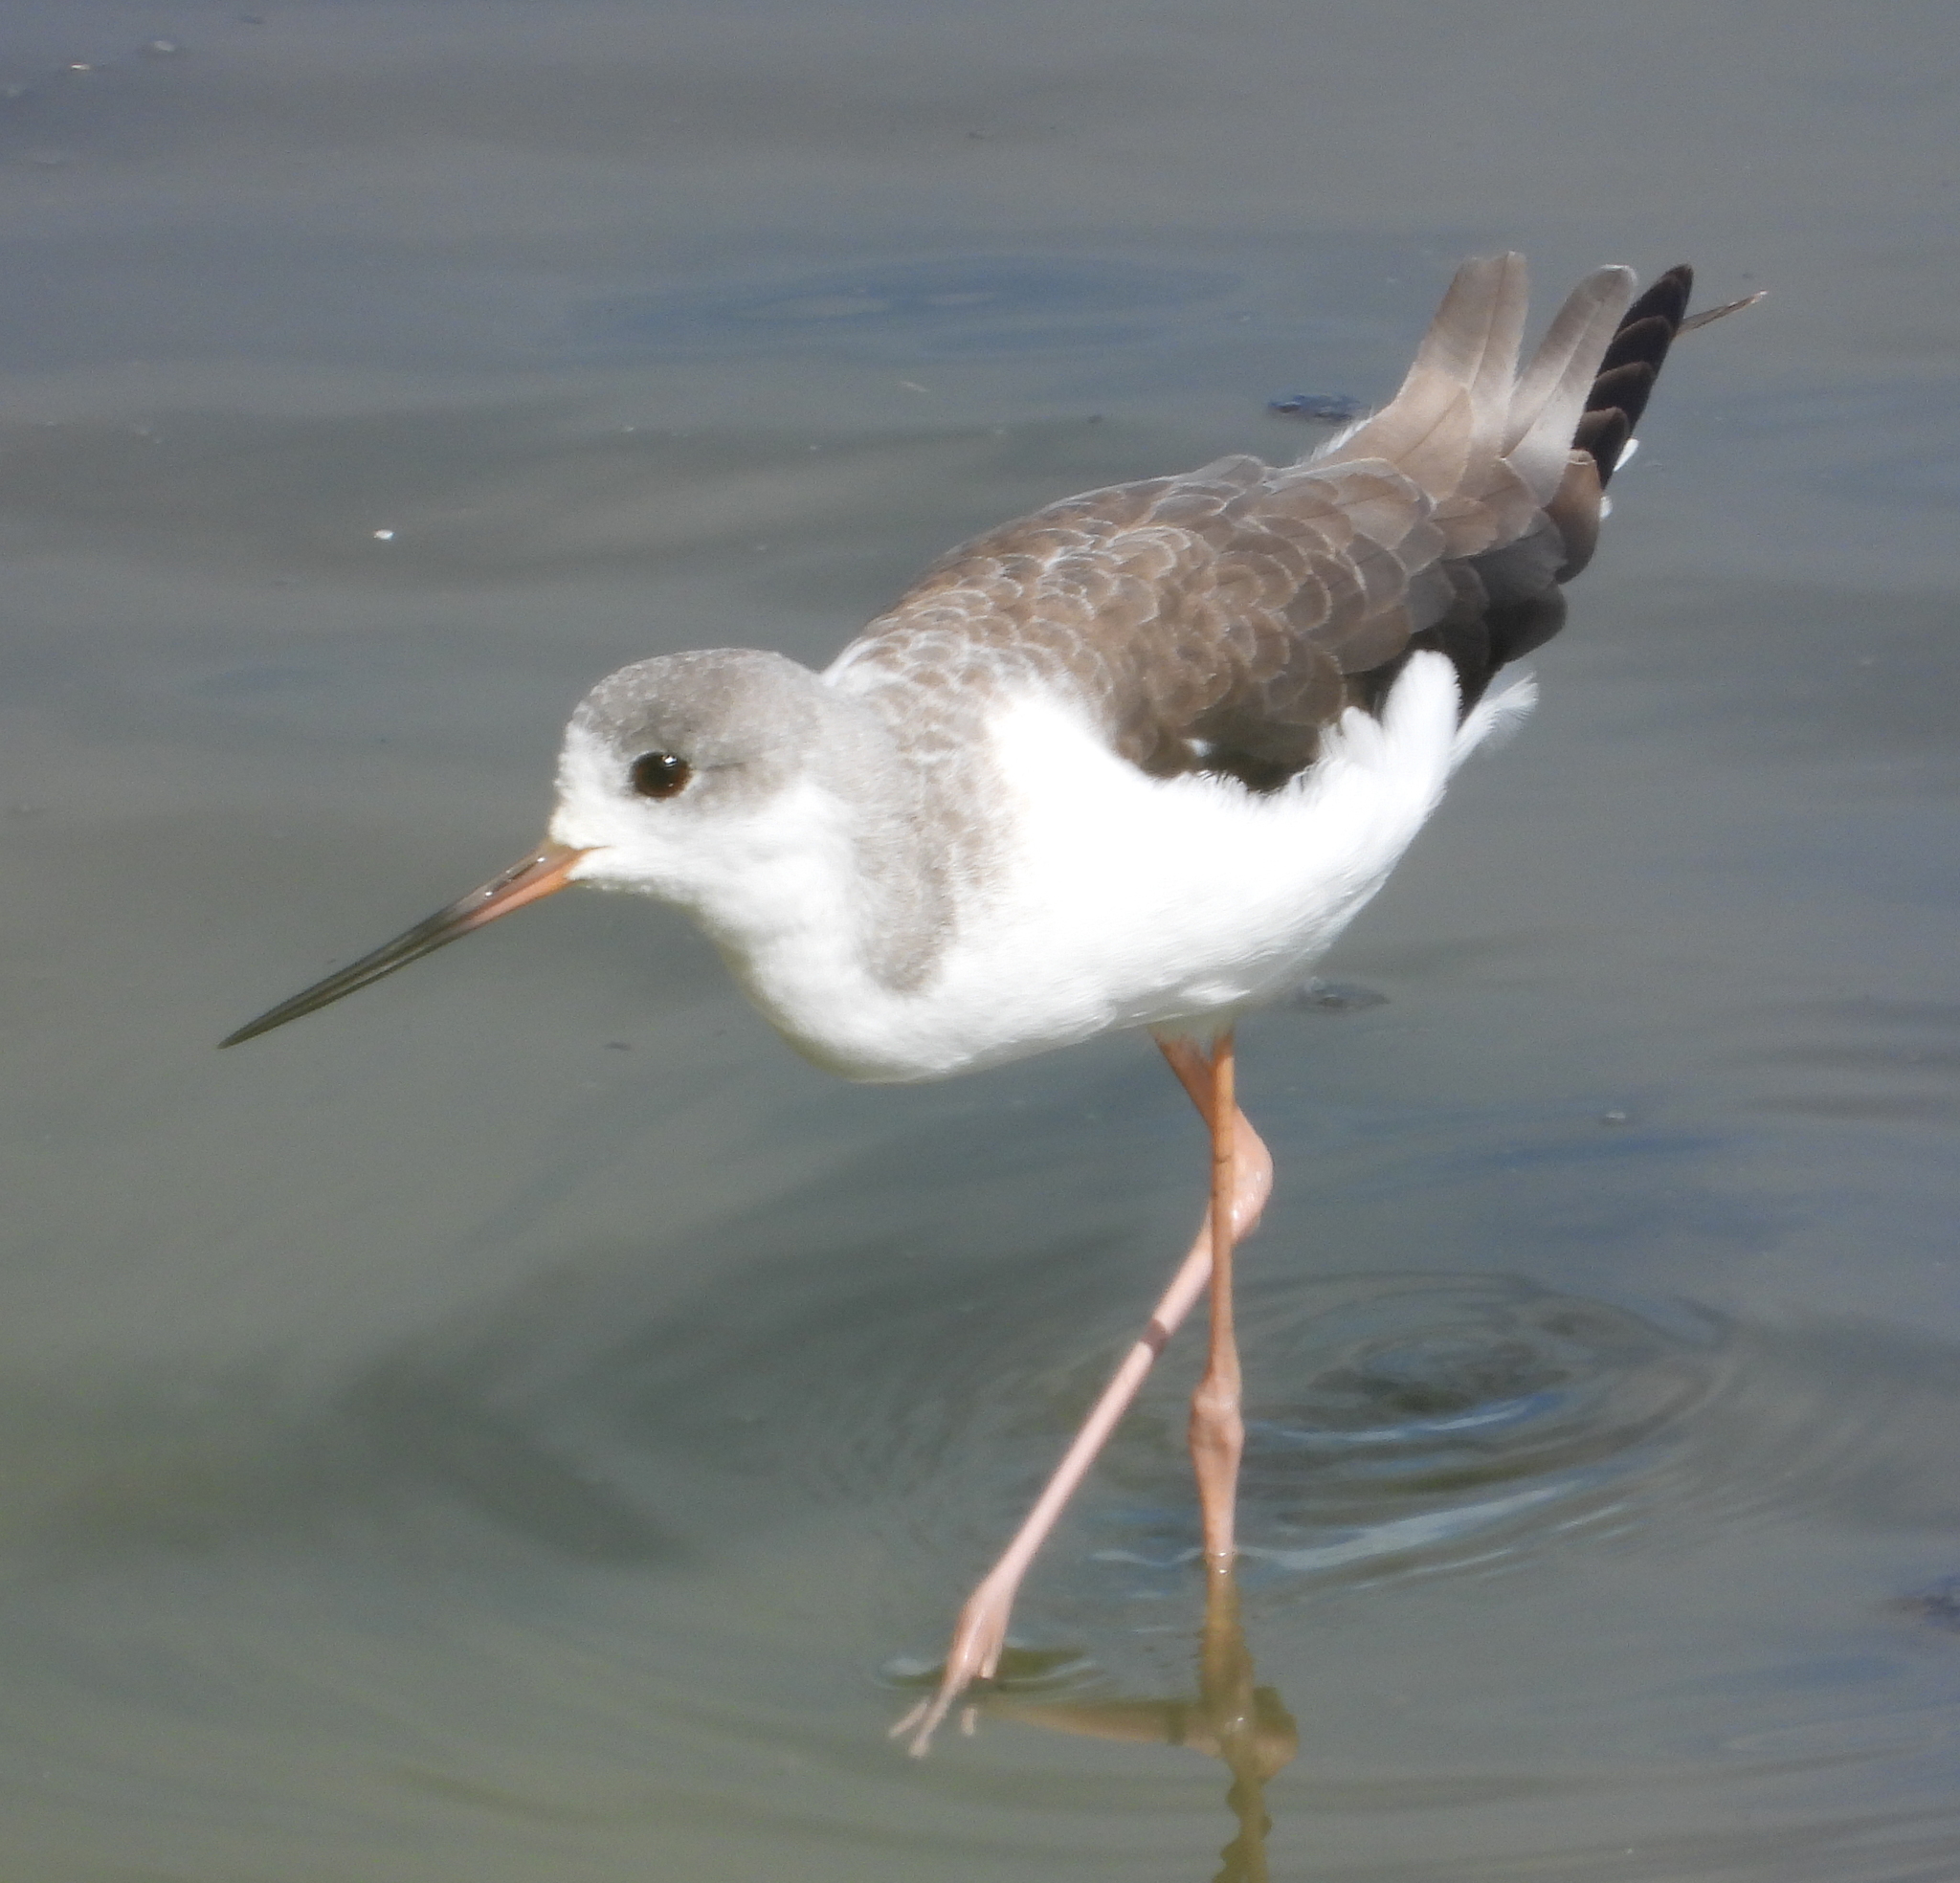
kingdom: Animalia
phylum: Chordata
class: Aves
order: Charadriiformes
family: Recurvirostridae
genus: Himantopus
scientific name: Himantopus himantopus
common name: Black-winged stilt
